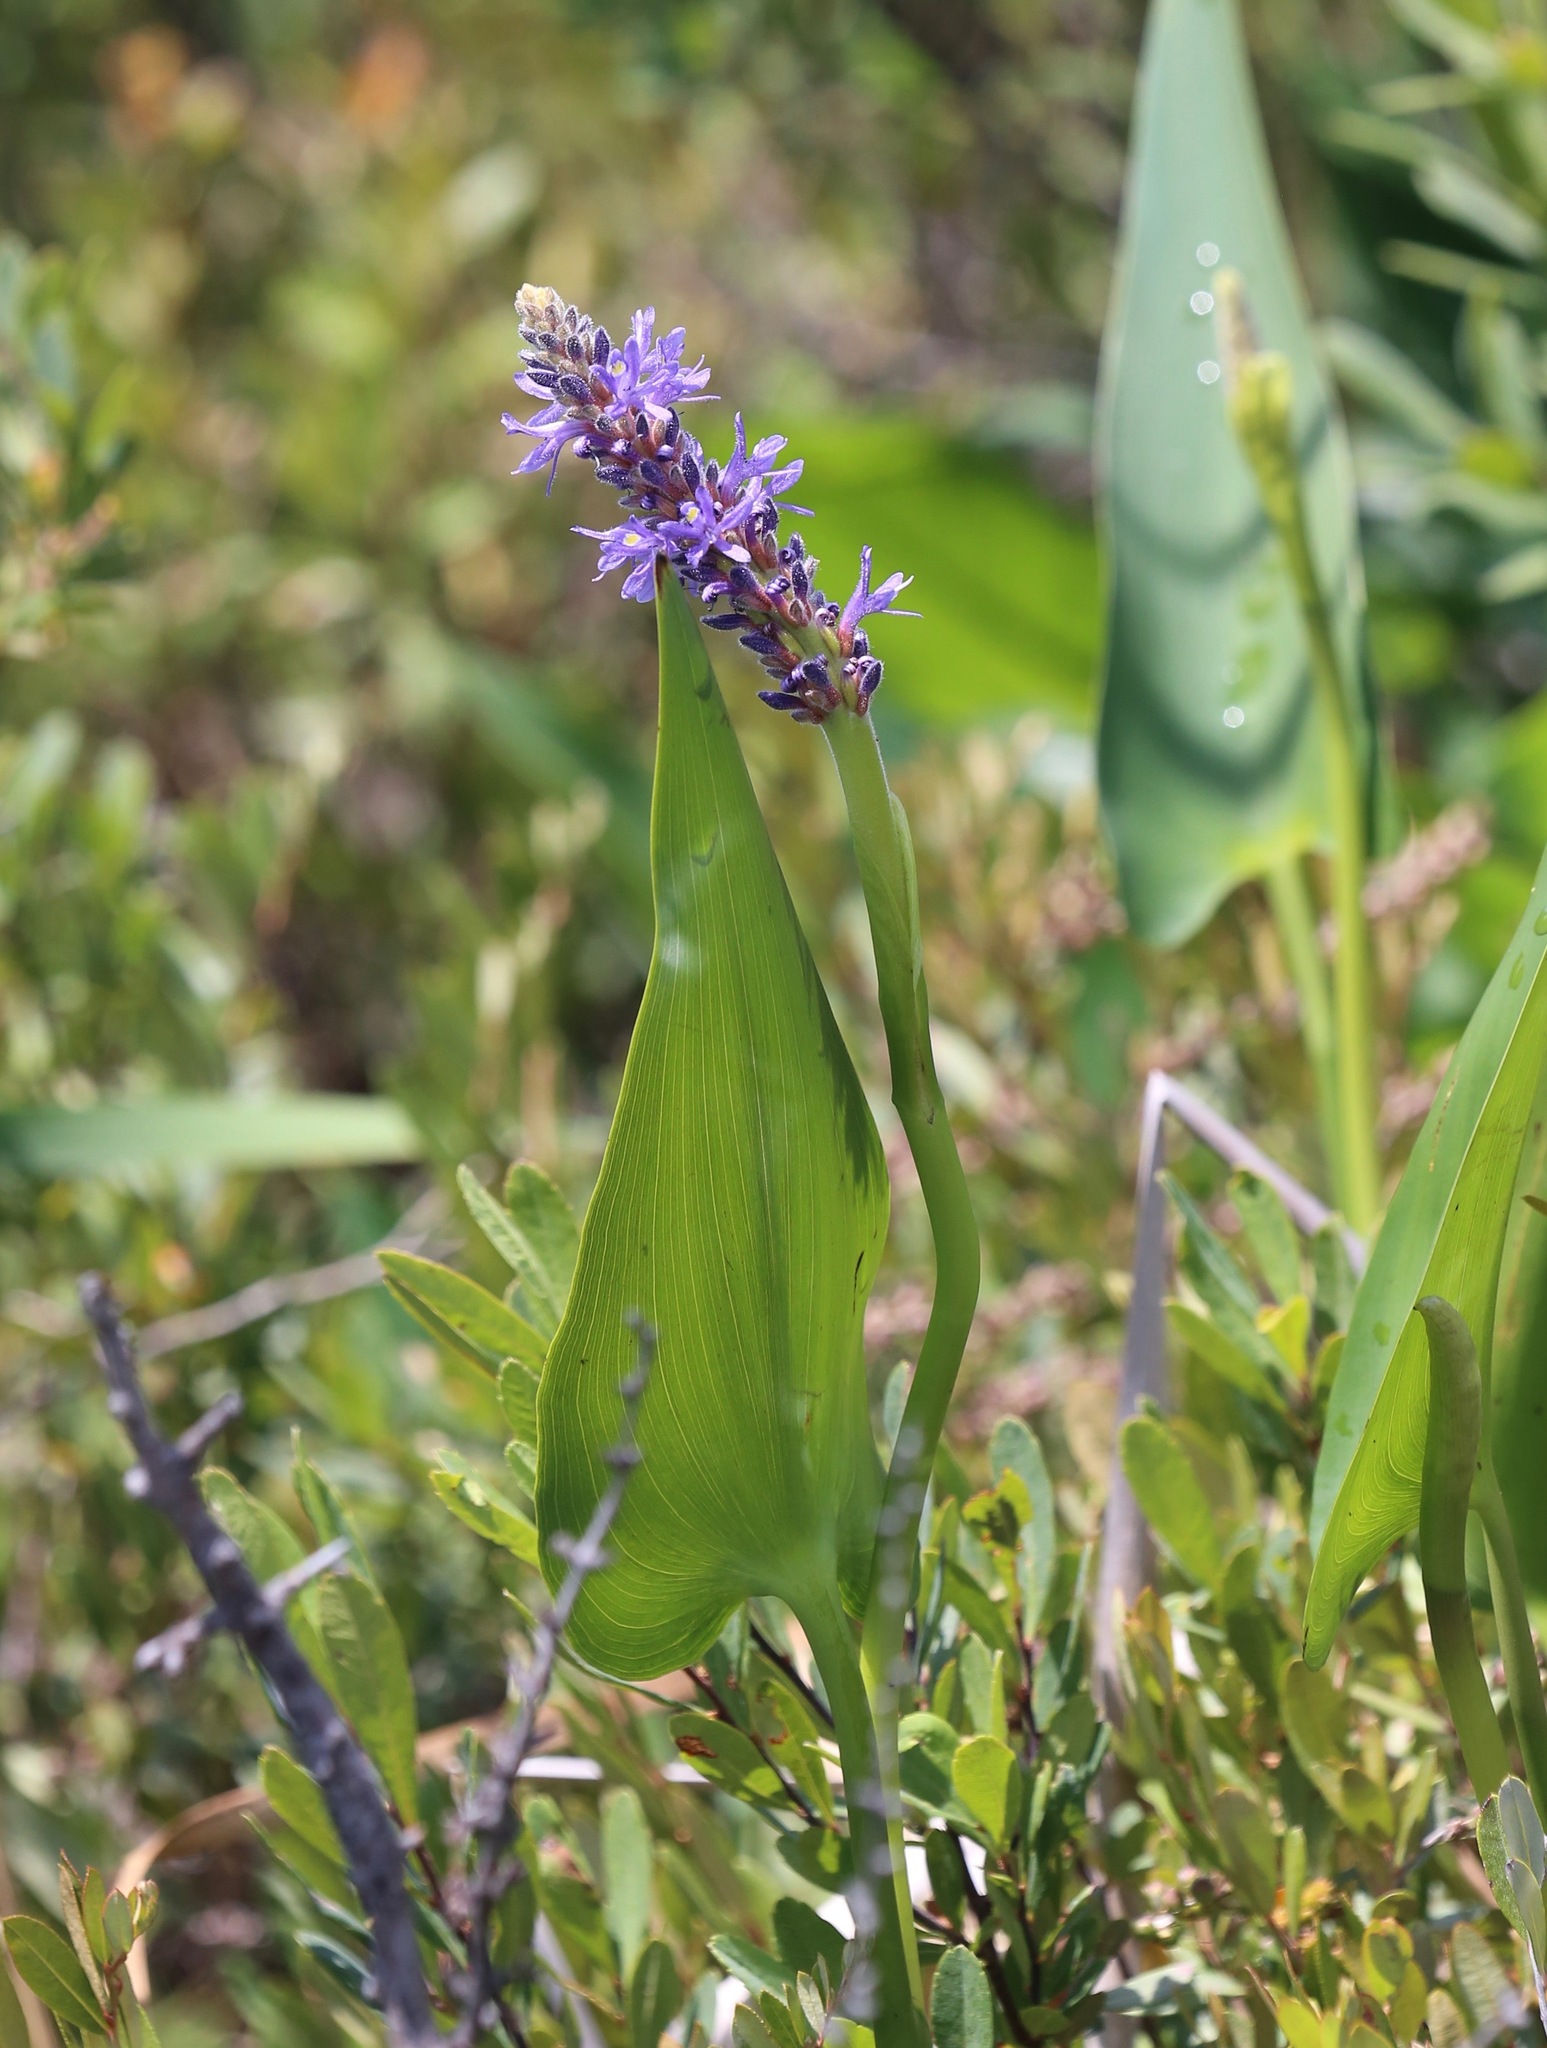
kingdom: Plantae
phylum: Tracheophyta
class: Liliopsida
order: Commelinales
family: Pontederiaceae
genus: Pontederia
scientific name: Pontederia cordata
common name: Pickerelweed
